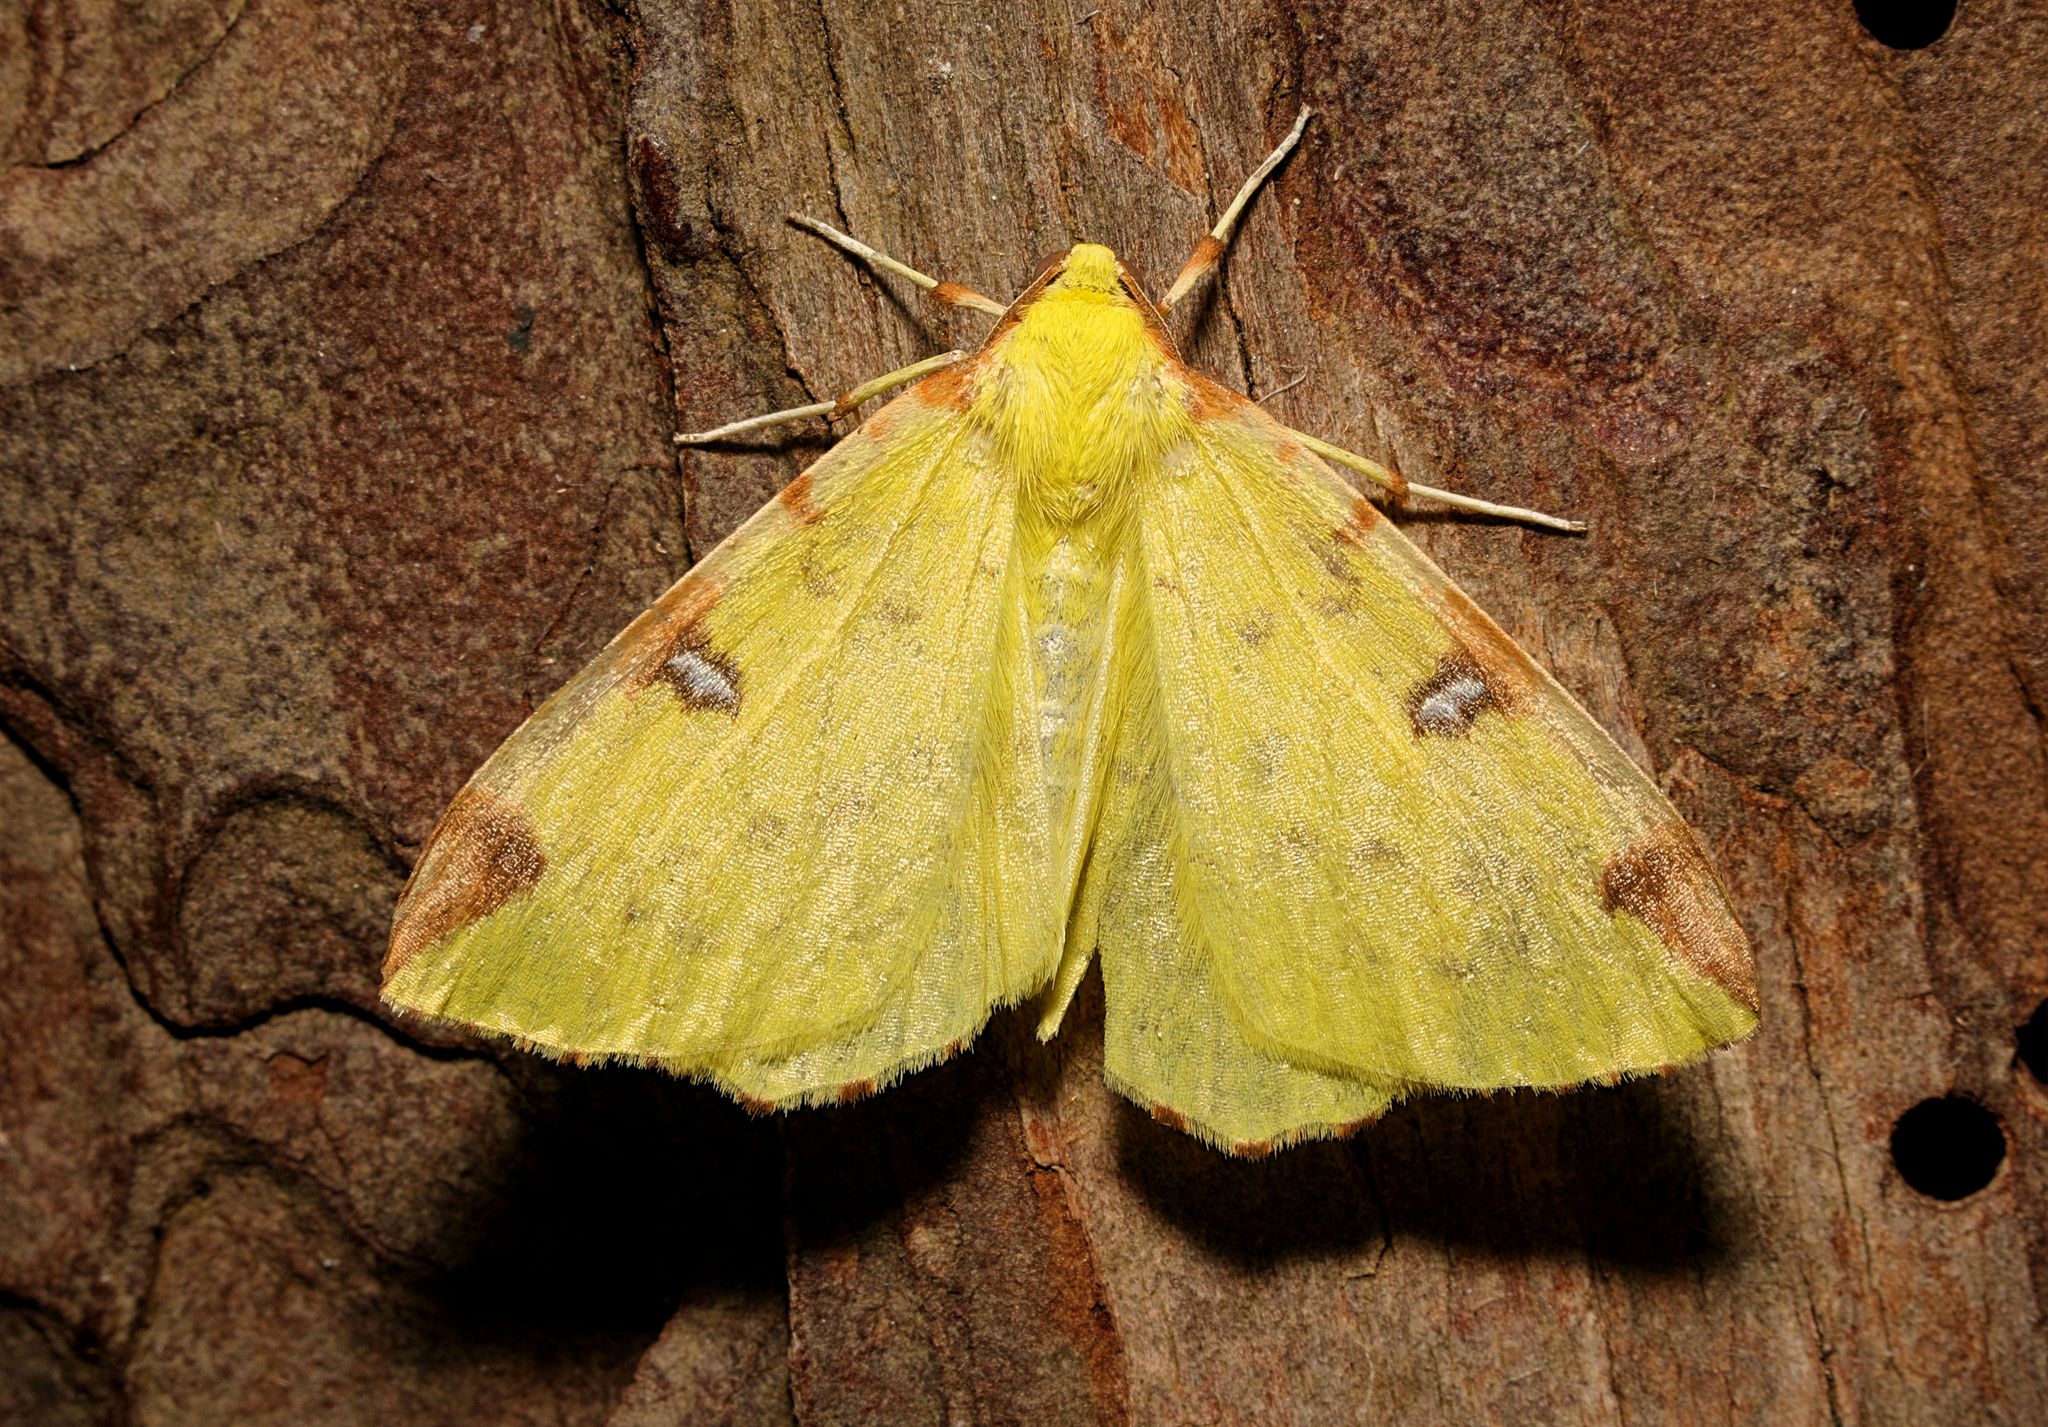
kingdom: Animalia
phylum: Arthropoda
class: Insecta
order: Lepidoptera
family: Geometridae
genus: Opisthograptis
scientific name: Opisthograptis luteolata
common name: Brimstone moth
